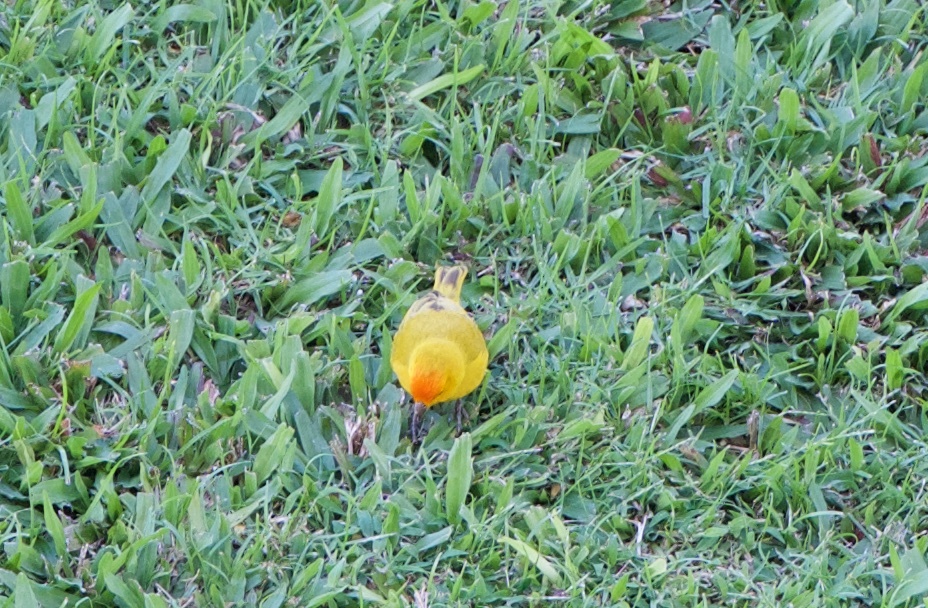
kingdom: Animalia
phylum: Chordata
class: Aves
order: Passeriformes
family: Thraupidae
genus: Sicalis
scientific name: Sicalis flaveola
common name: Saffron finch
